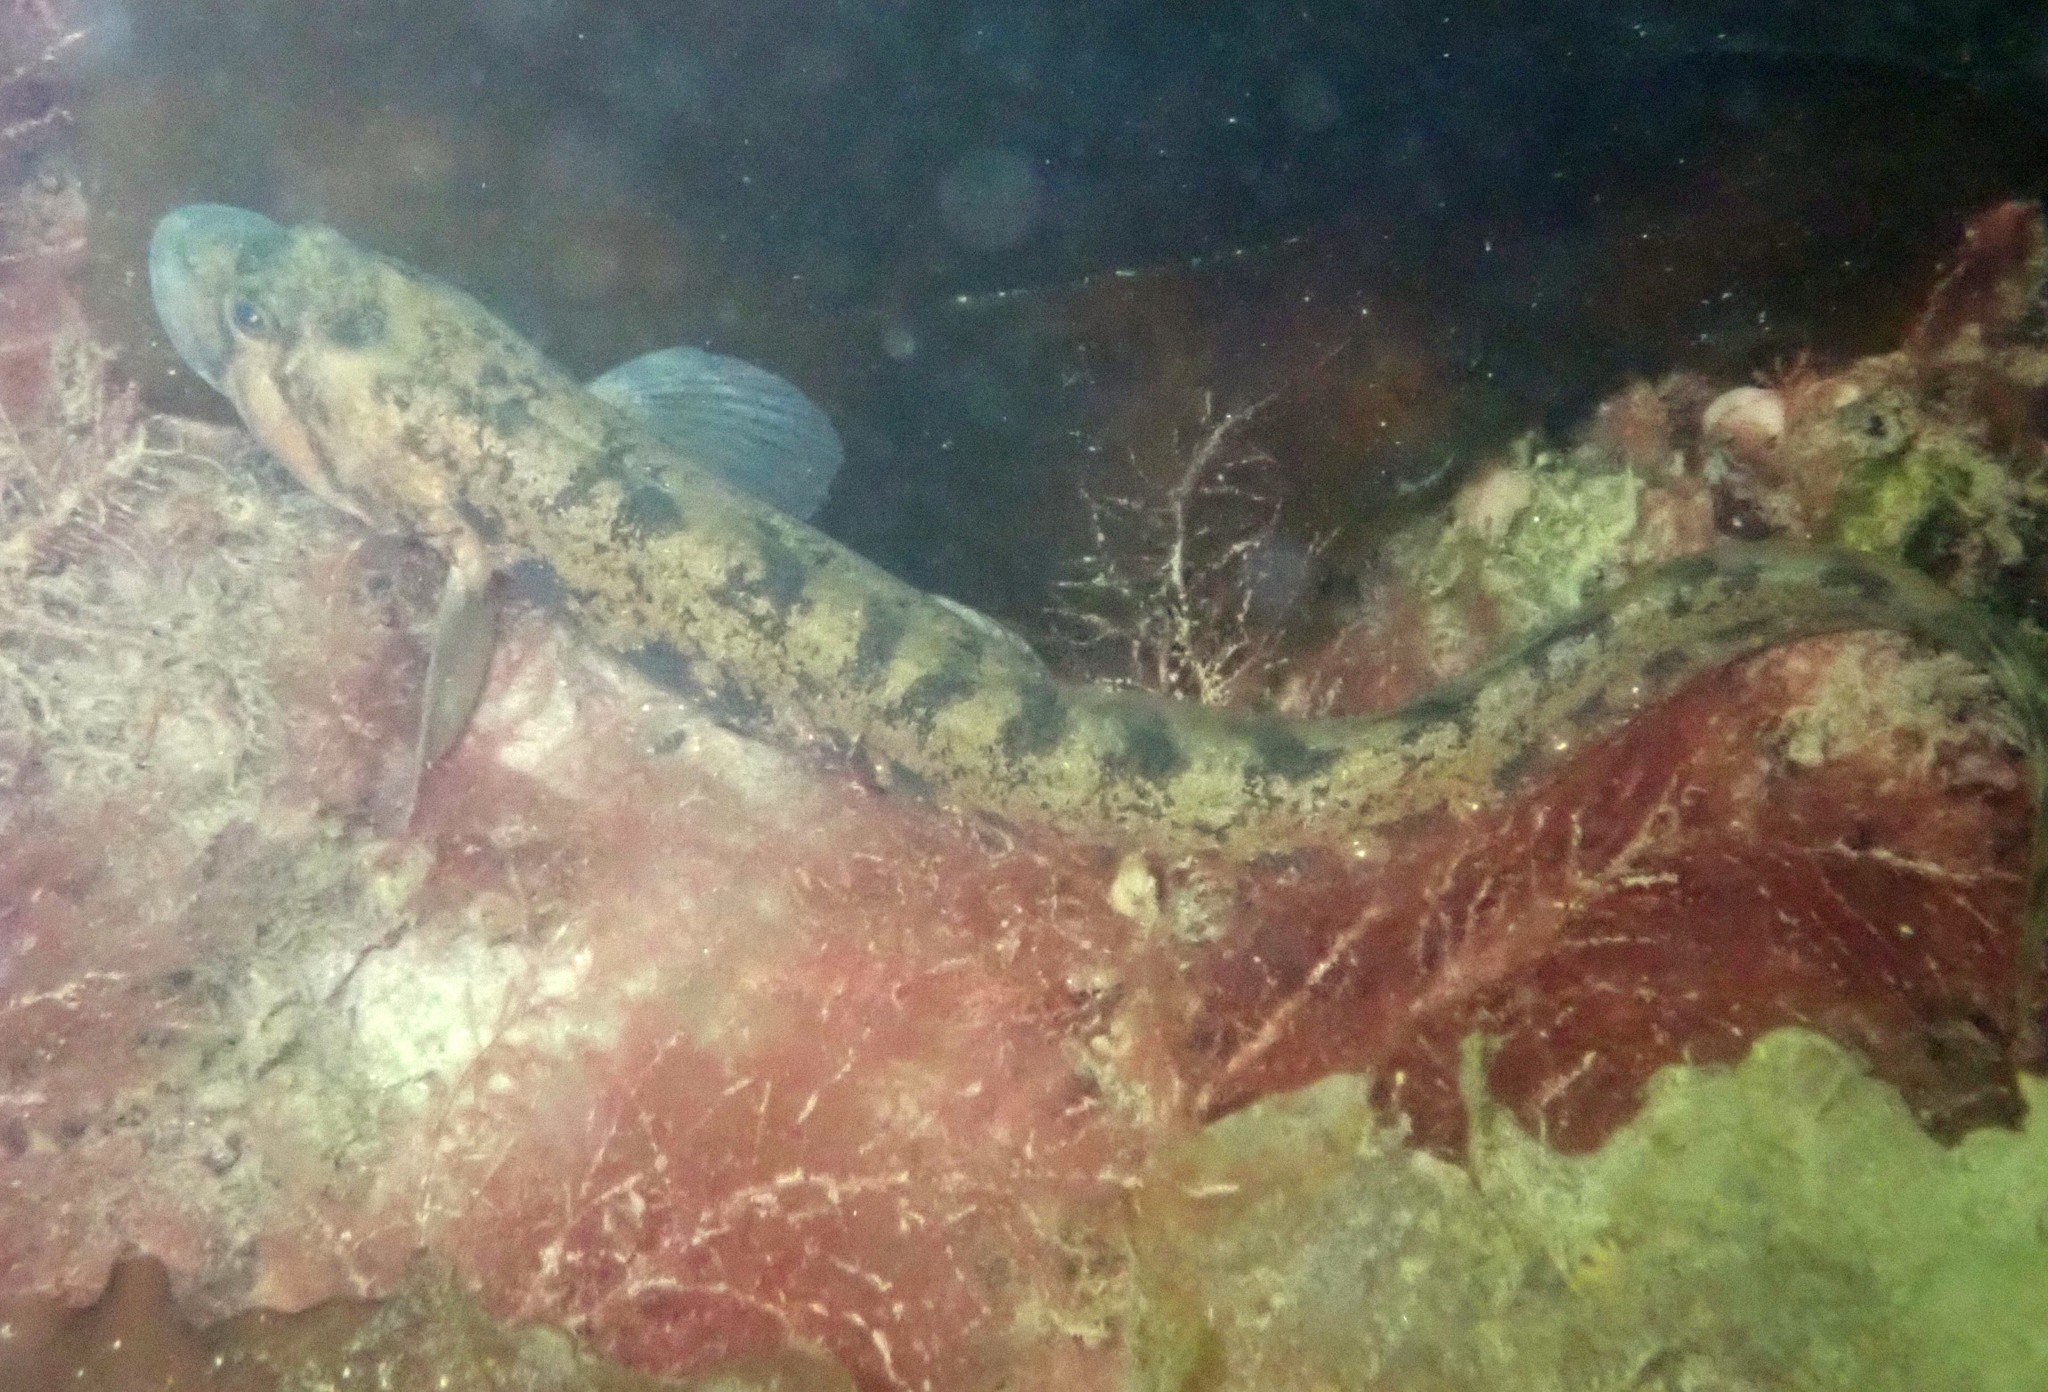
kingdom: Animalia
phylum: Chordata
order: Perciformes
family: Zoarcidae
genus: Zoarces
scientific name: Zoarces viviparus
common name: Viviparous blenny
